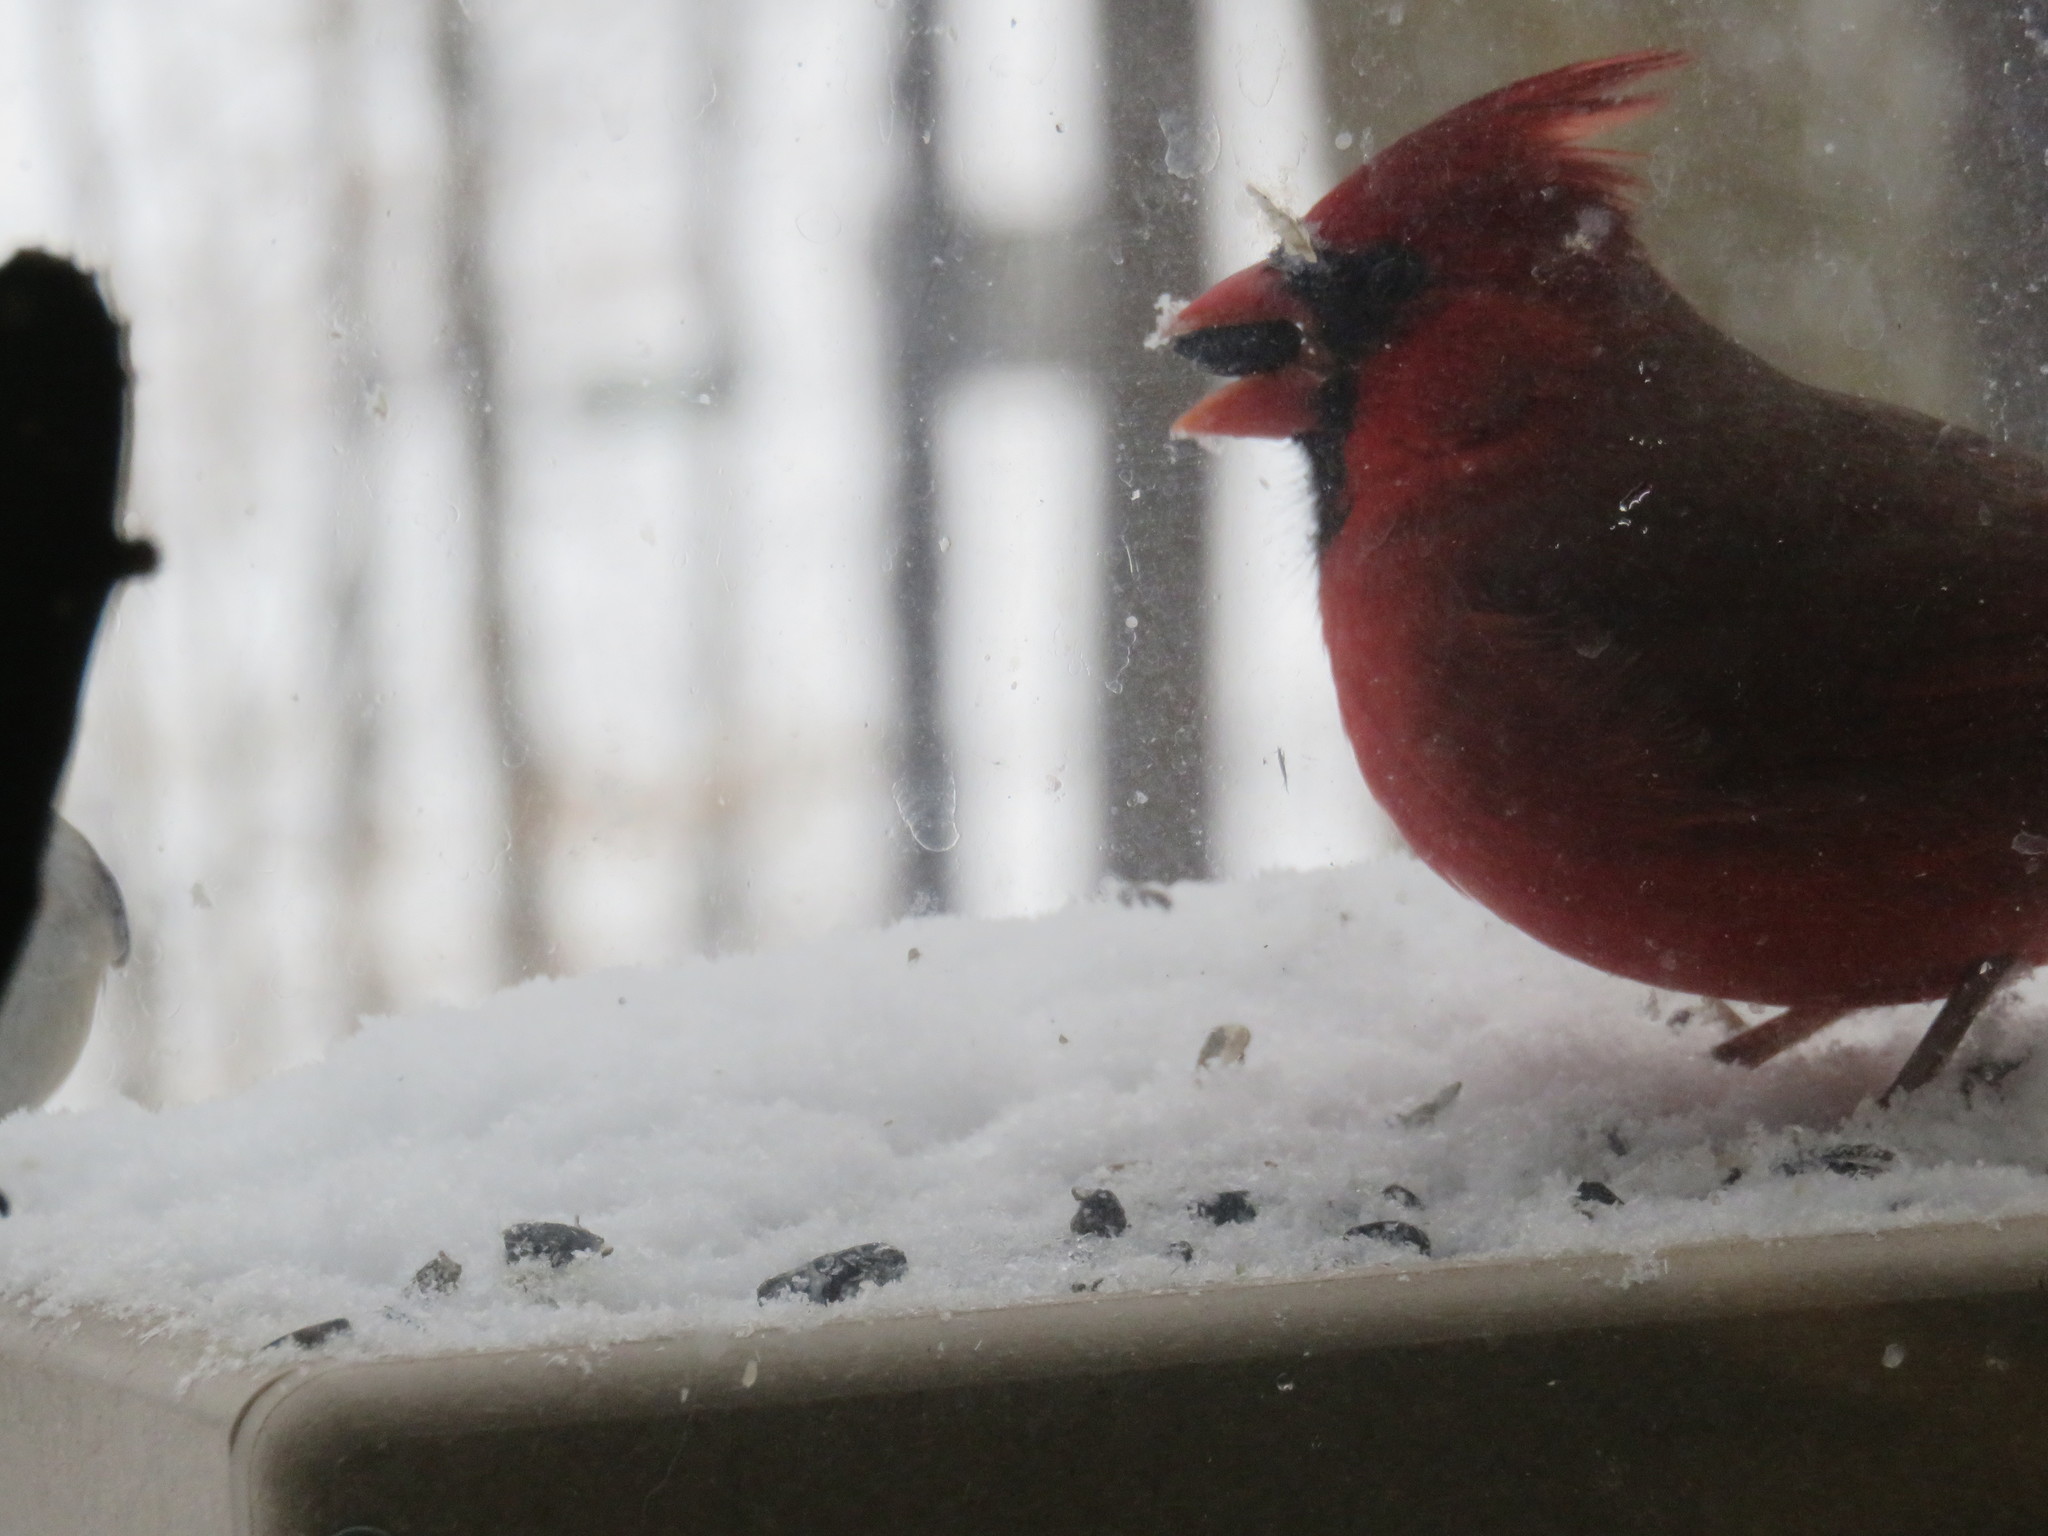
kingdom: Animalia
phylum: Chordata
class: Aves
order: Passeriformes
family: Cardinalidae
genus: Cardinalis
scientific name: Cardinalis cardinalis
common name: Northern cardinal
